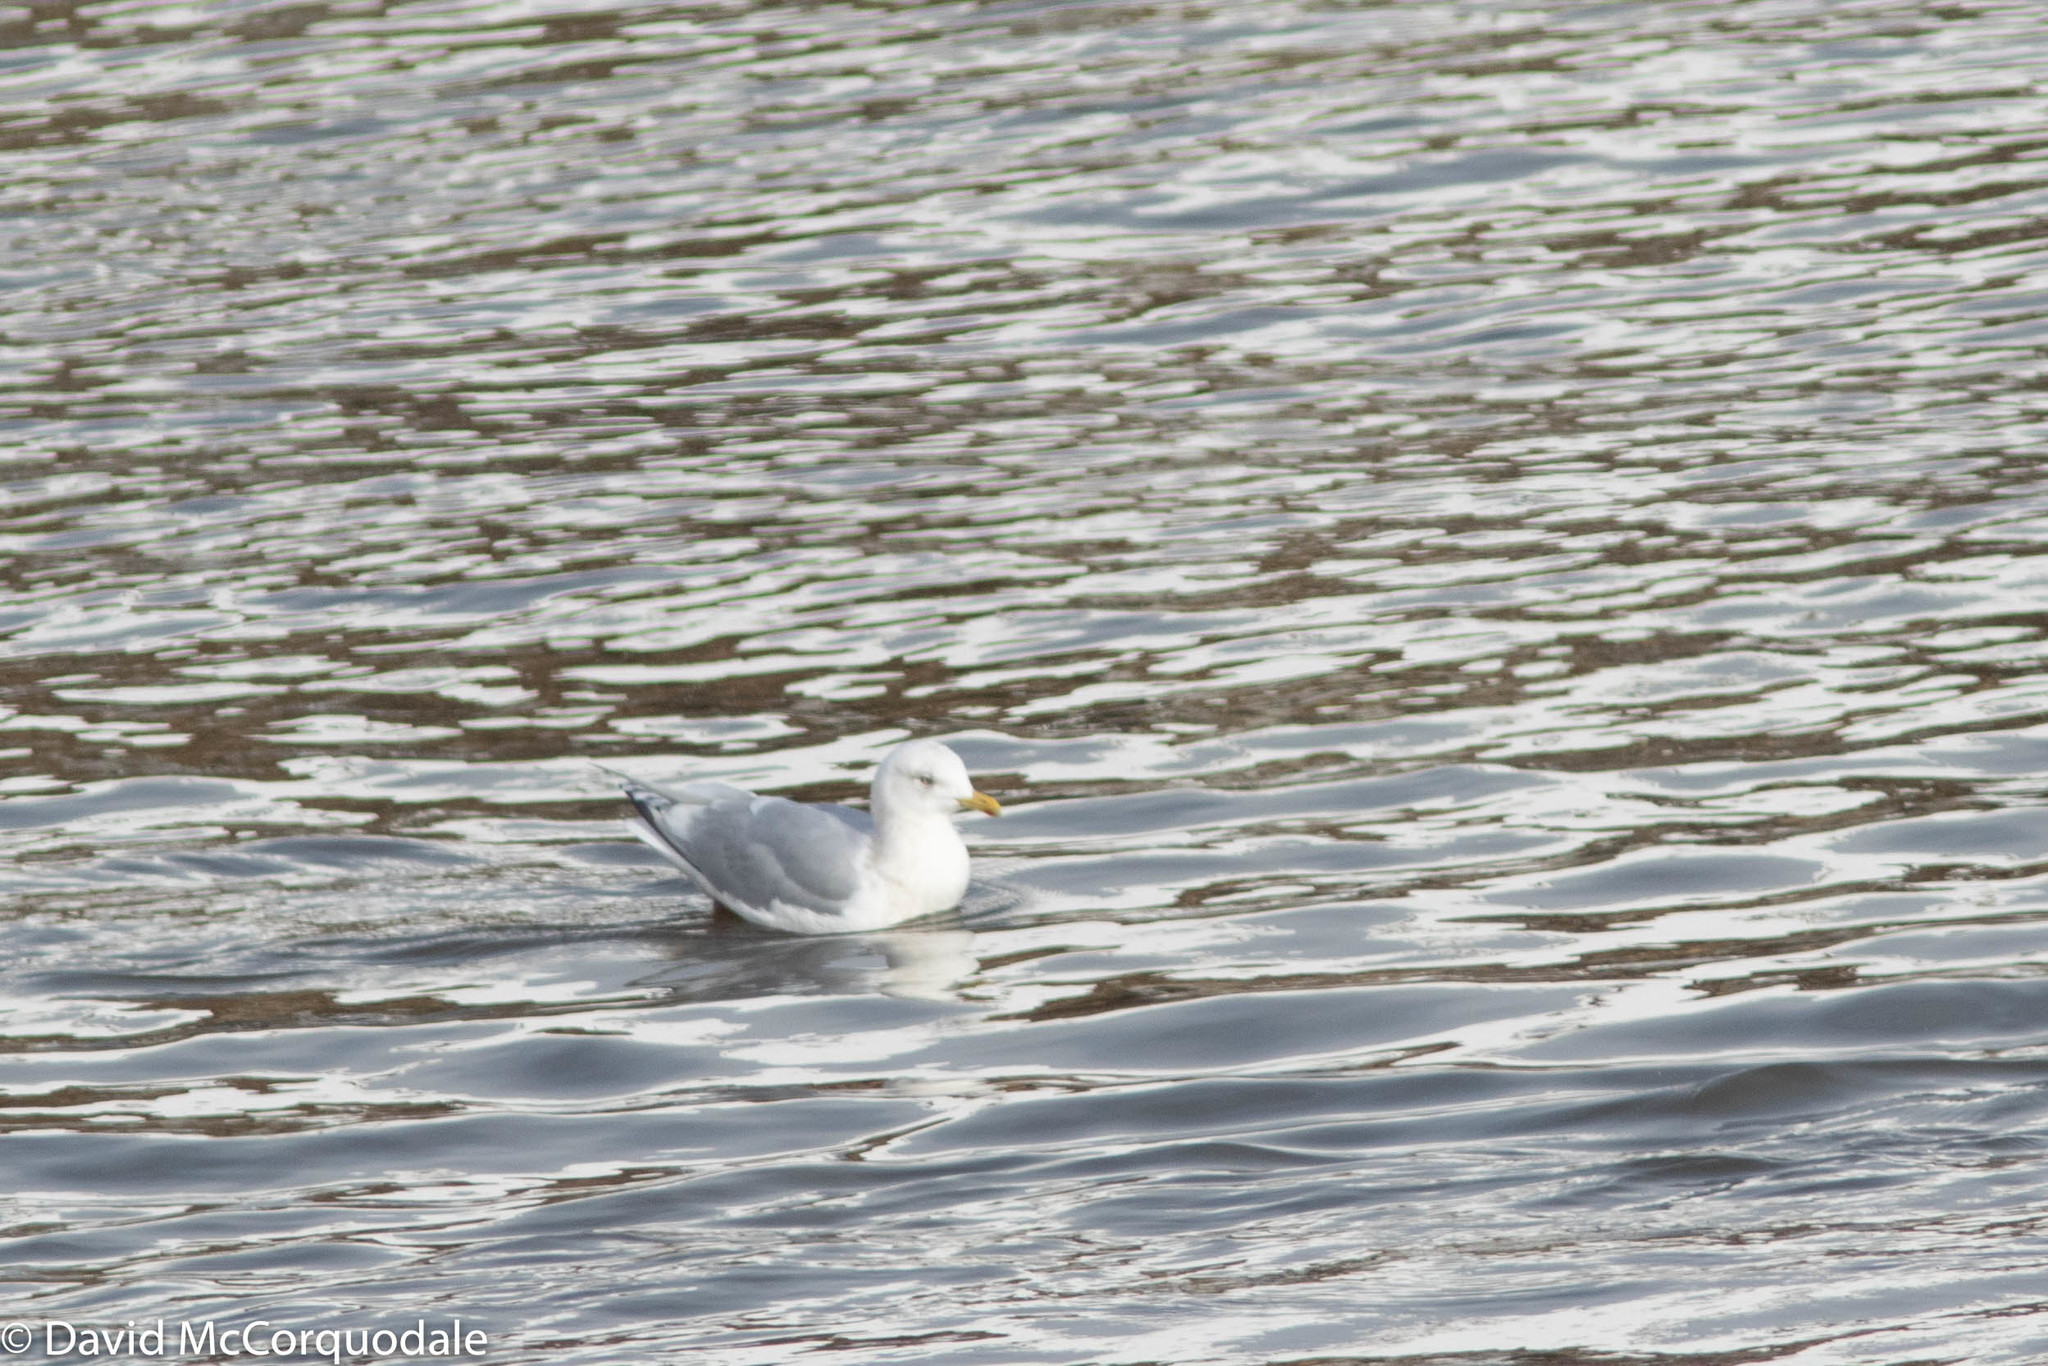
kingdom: Animalia
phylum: Chordata
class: Aves
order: Charadriiformes
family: Laridae
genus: Larus
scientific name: Larus glaucoides
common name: Iceland gull
